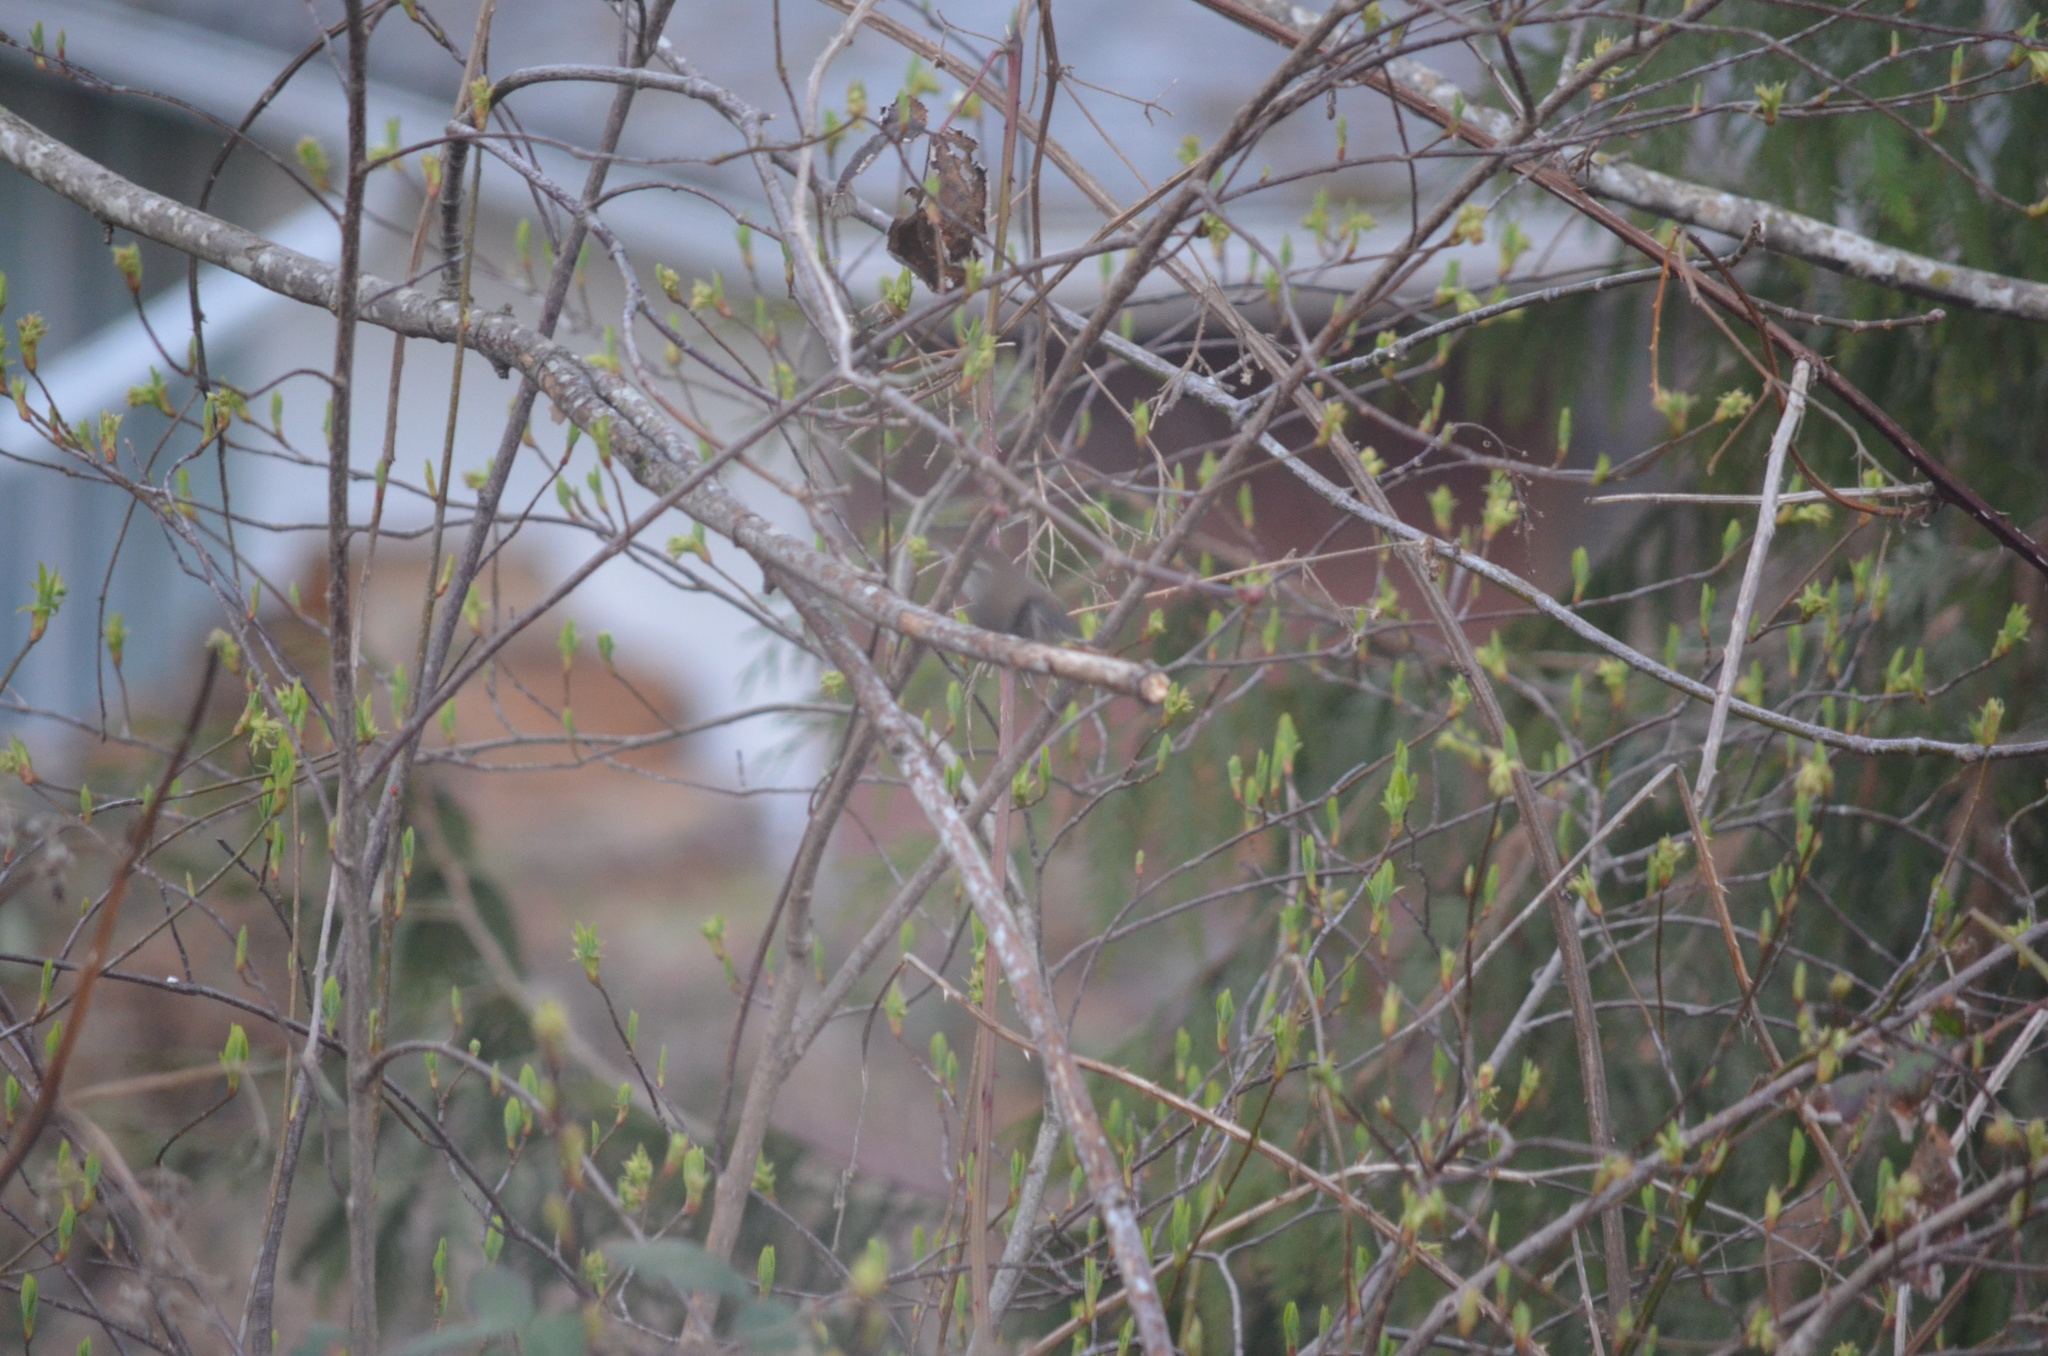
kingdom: Animalia
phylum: Chordata
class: Aves
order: Passeriformes
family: Troglodytidae
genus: Thryomanes
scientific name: Thryomanes bewickii
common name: Bewick's wren
